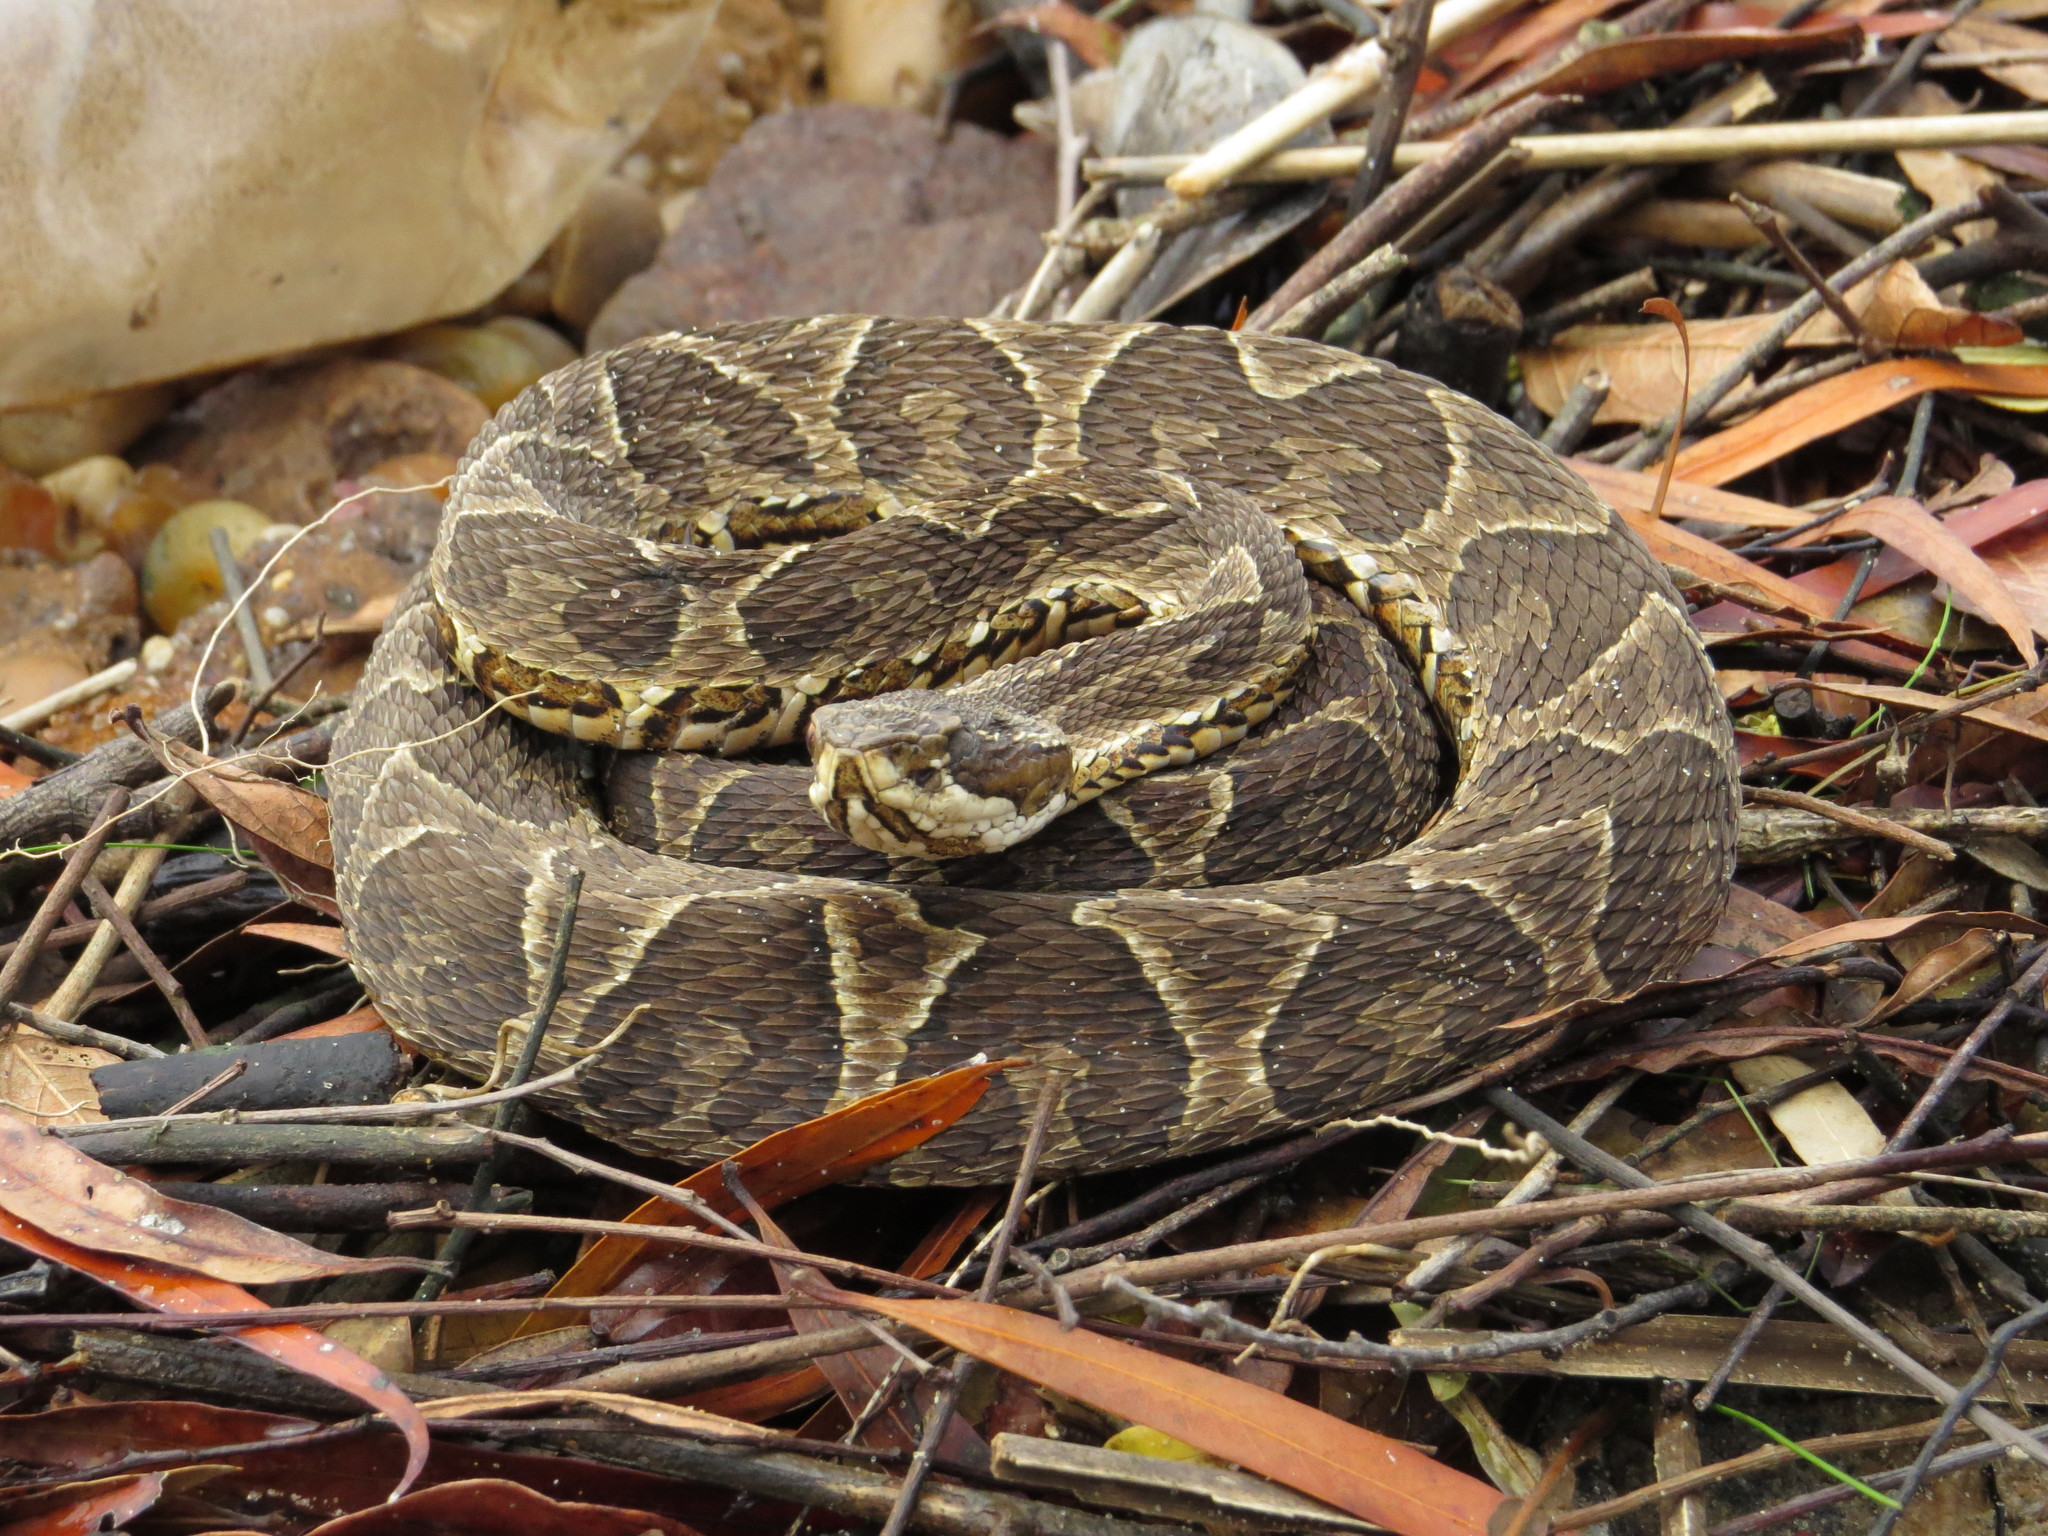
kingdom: Animalia
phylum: Chordata
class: Squamata
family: Viperidae
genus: Bothrops
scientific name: Bothrops alternatus
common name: Urutu
